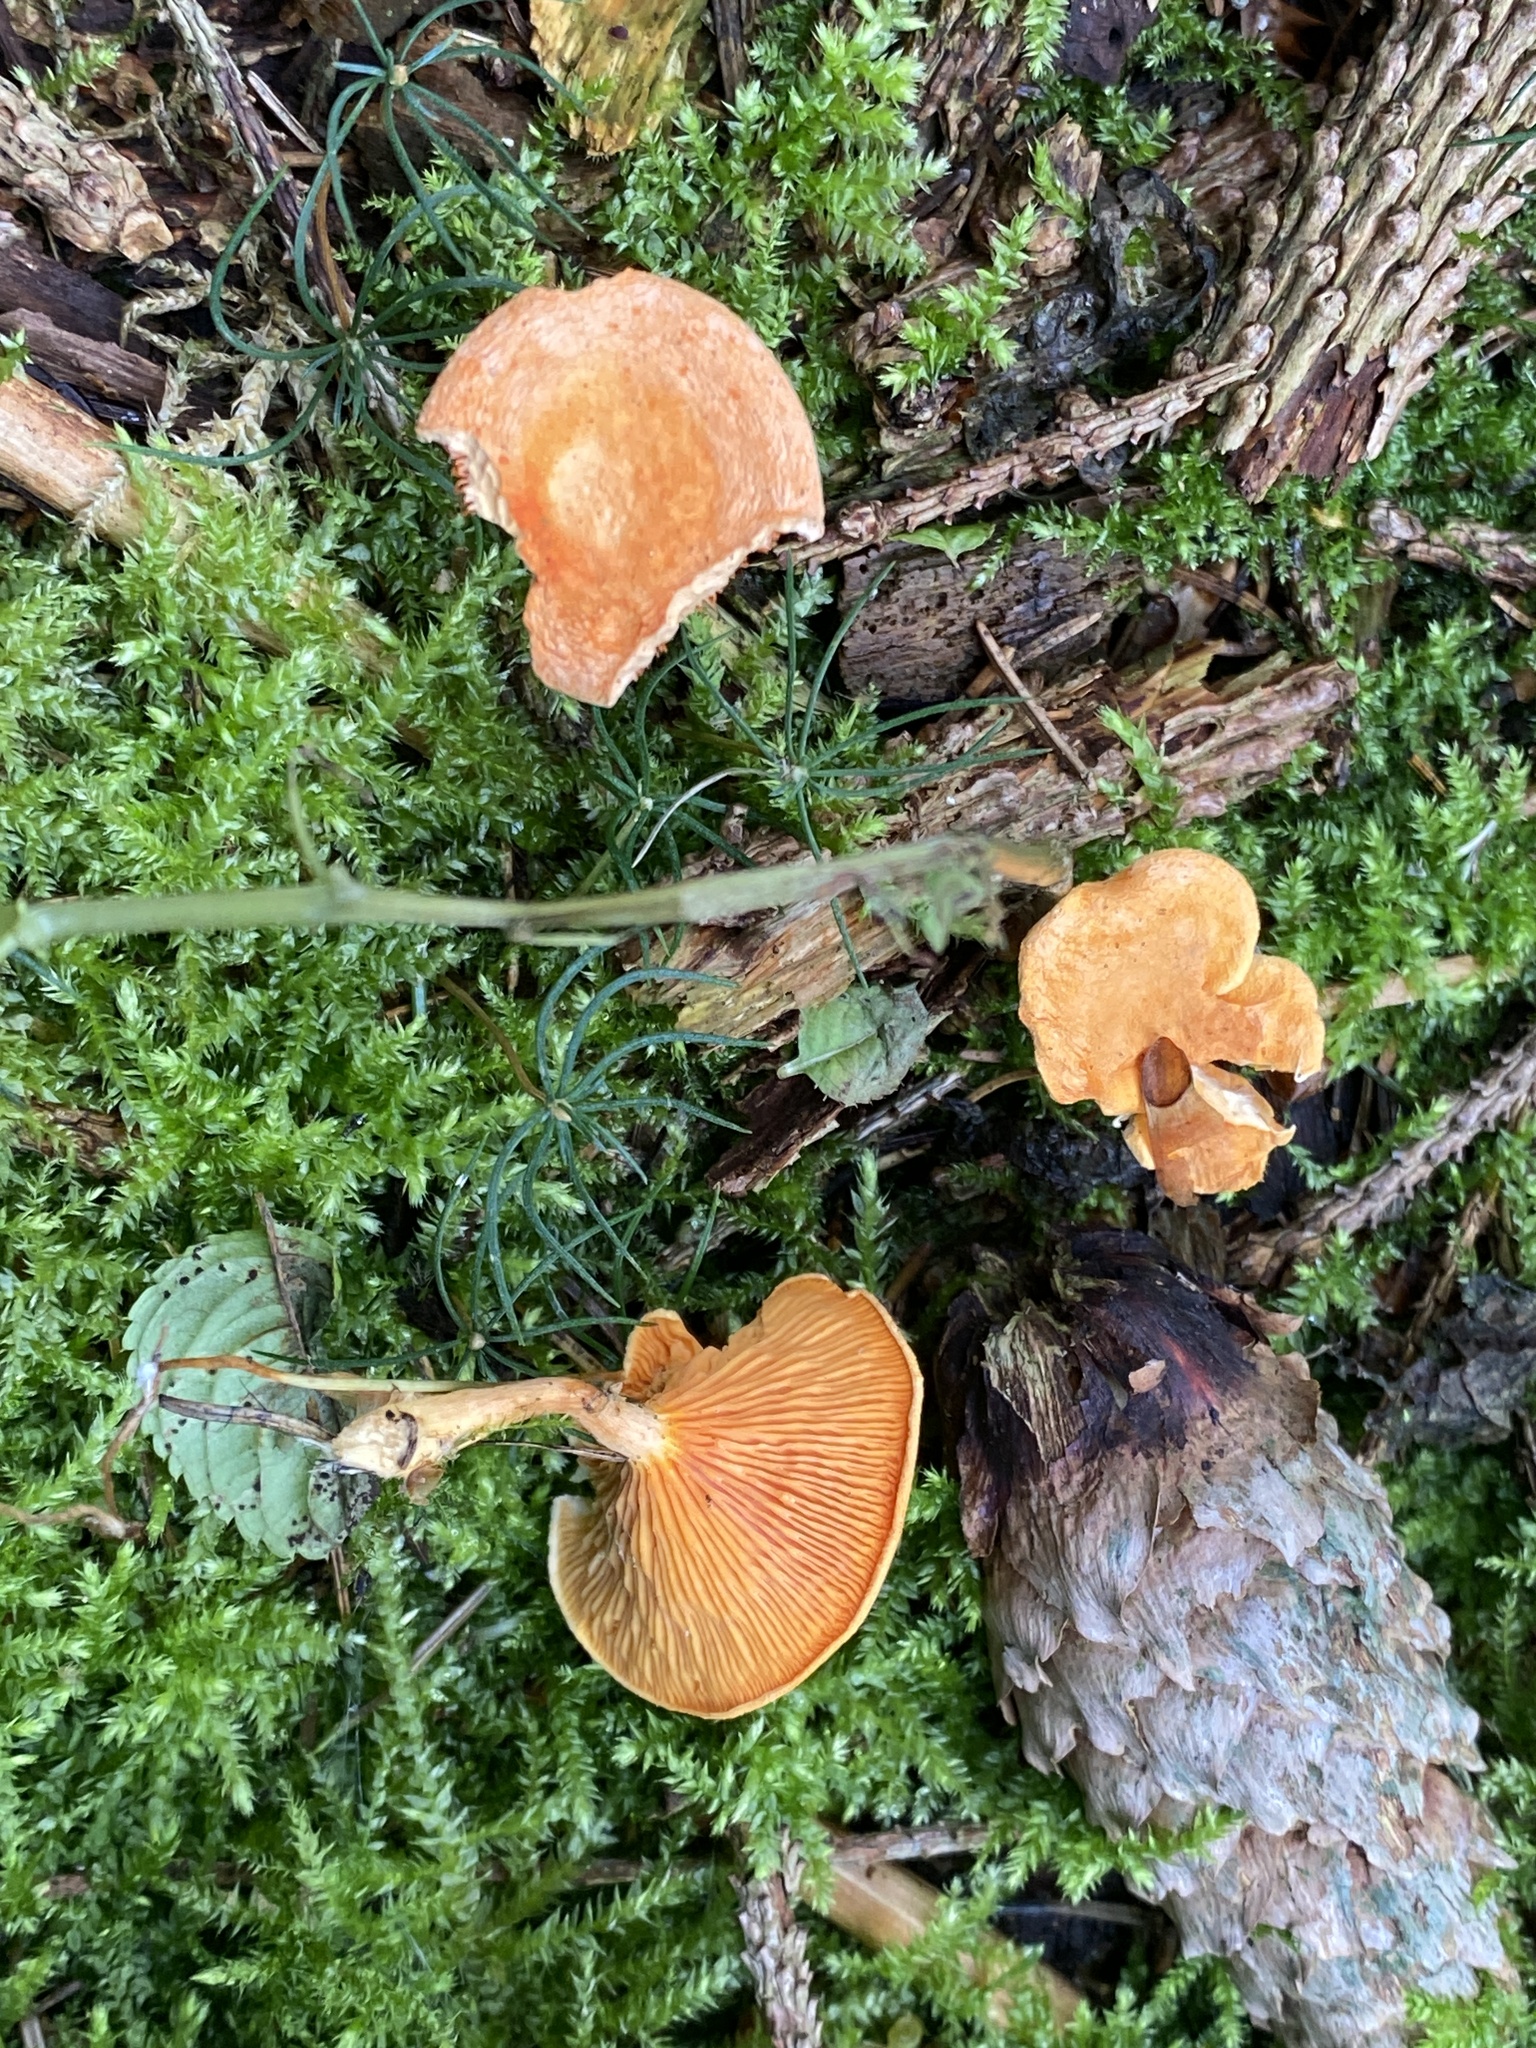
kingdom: Fungi
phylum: Basidiomycota
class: Agaricomycetes
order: Boletales
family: Hygrophoropsidaceae
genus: Hygrophoropsis
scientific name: Hygrophoropsis aurantiaca
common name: False chanterelle
